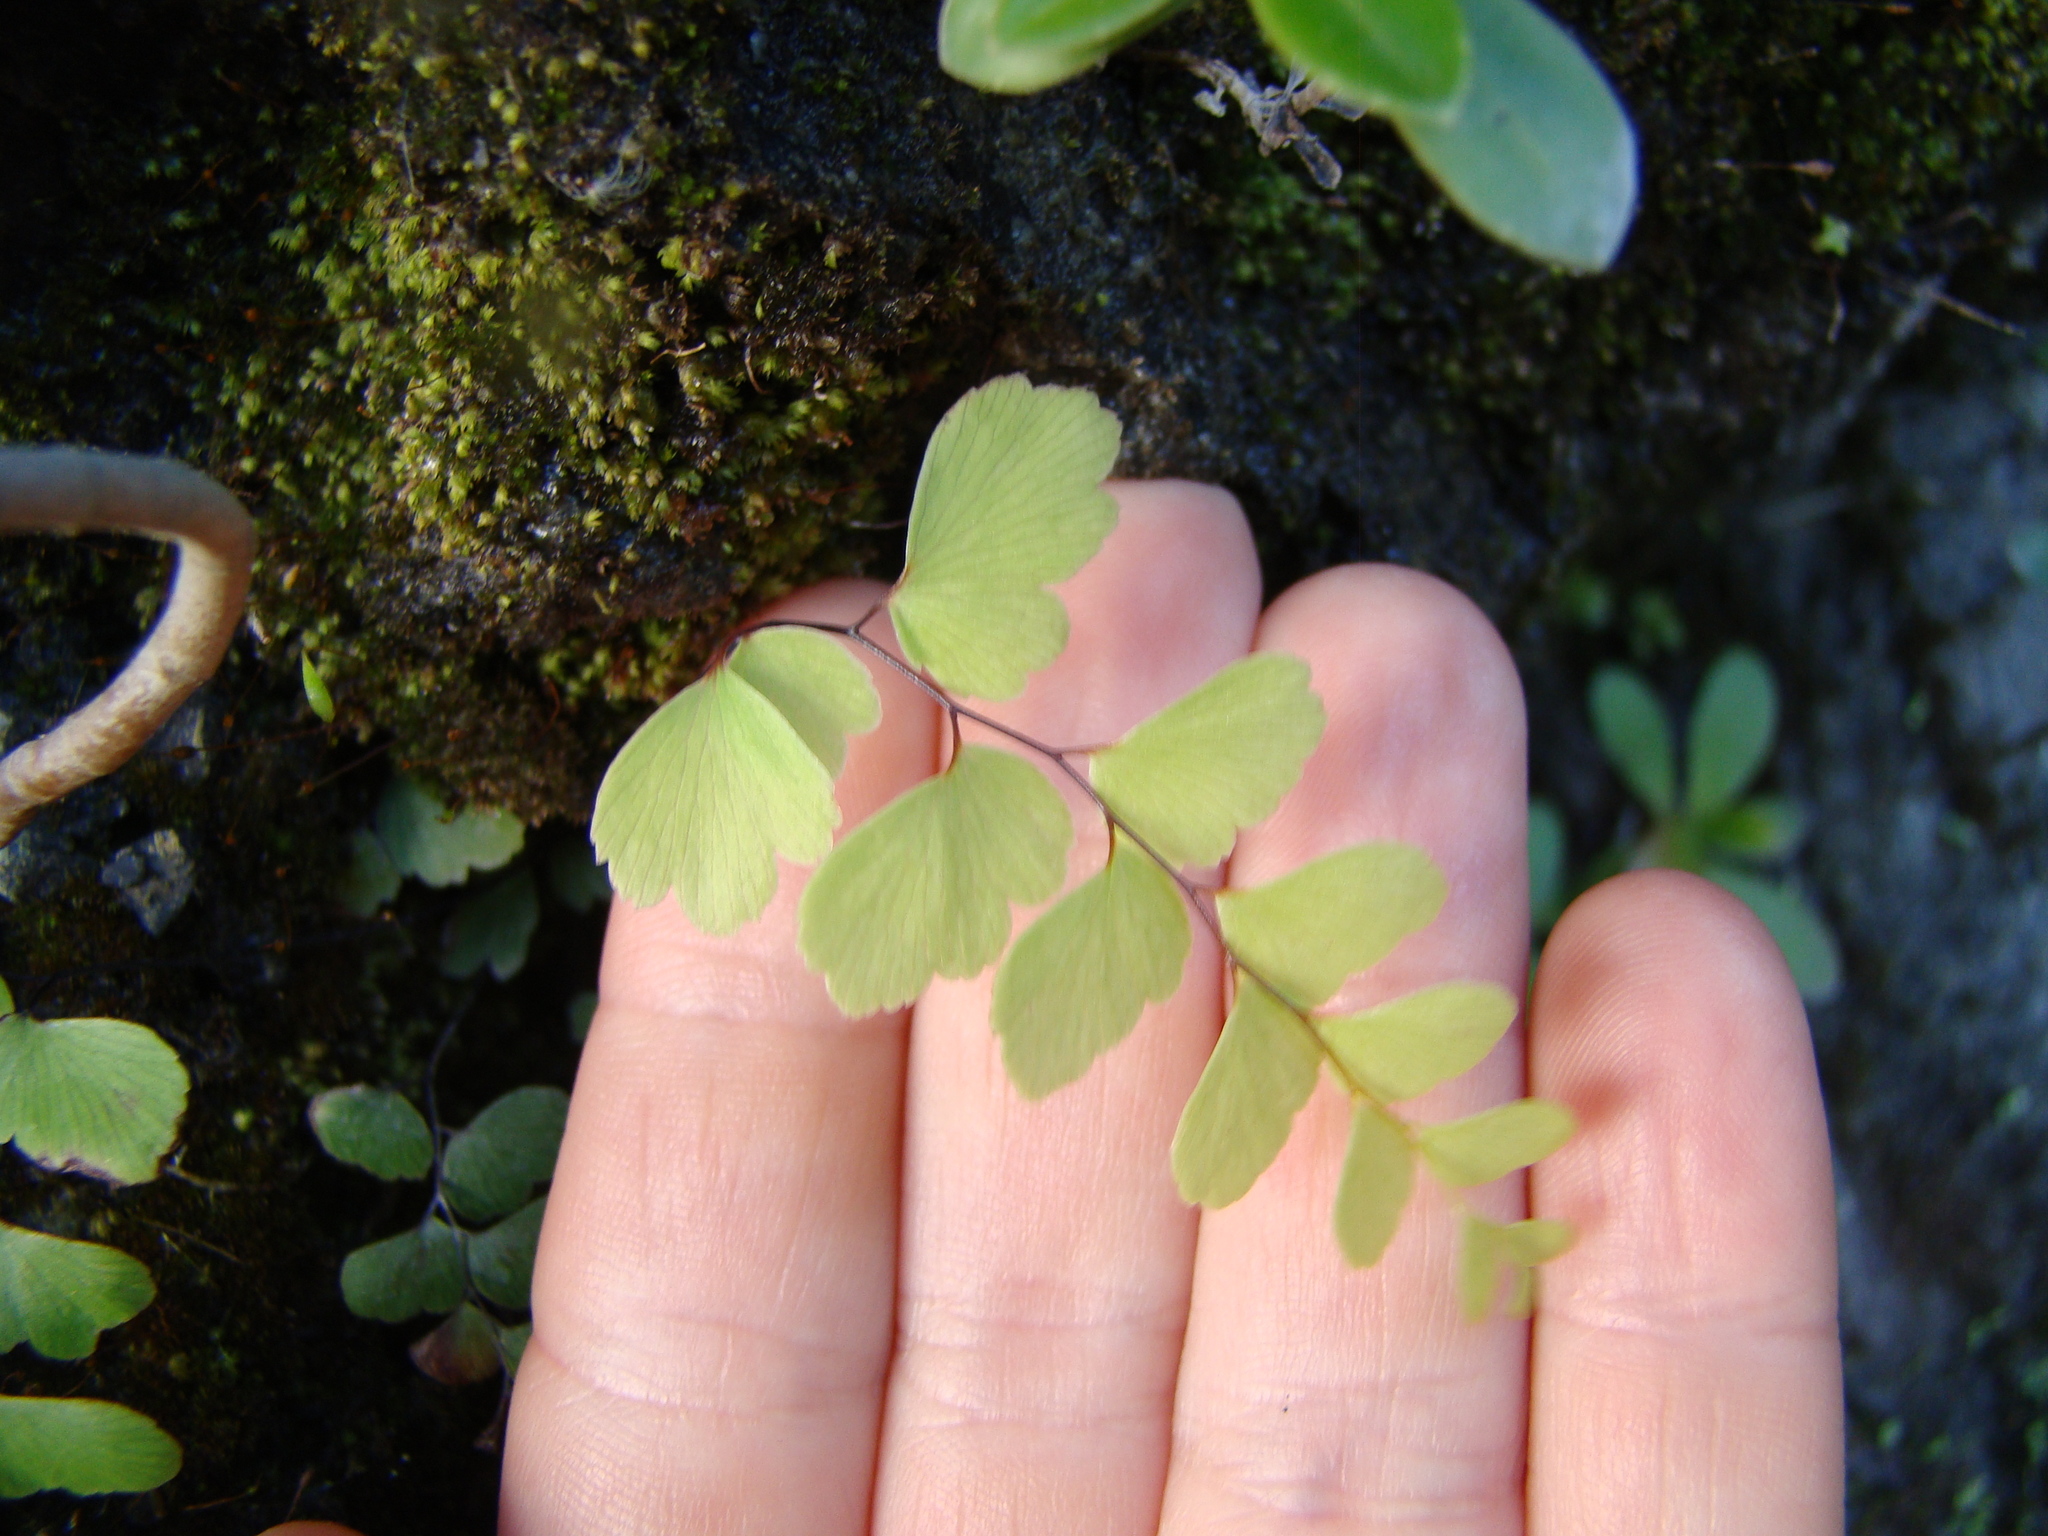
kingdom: Plantae
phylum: Tracheophyta
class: Polypodiopsida
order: Polypodiales
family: Pteridaceae
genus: Adiantum
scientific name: Adiantum cunninghamii
